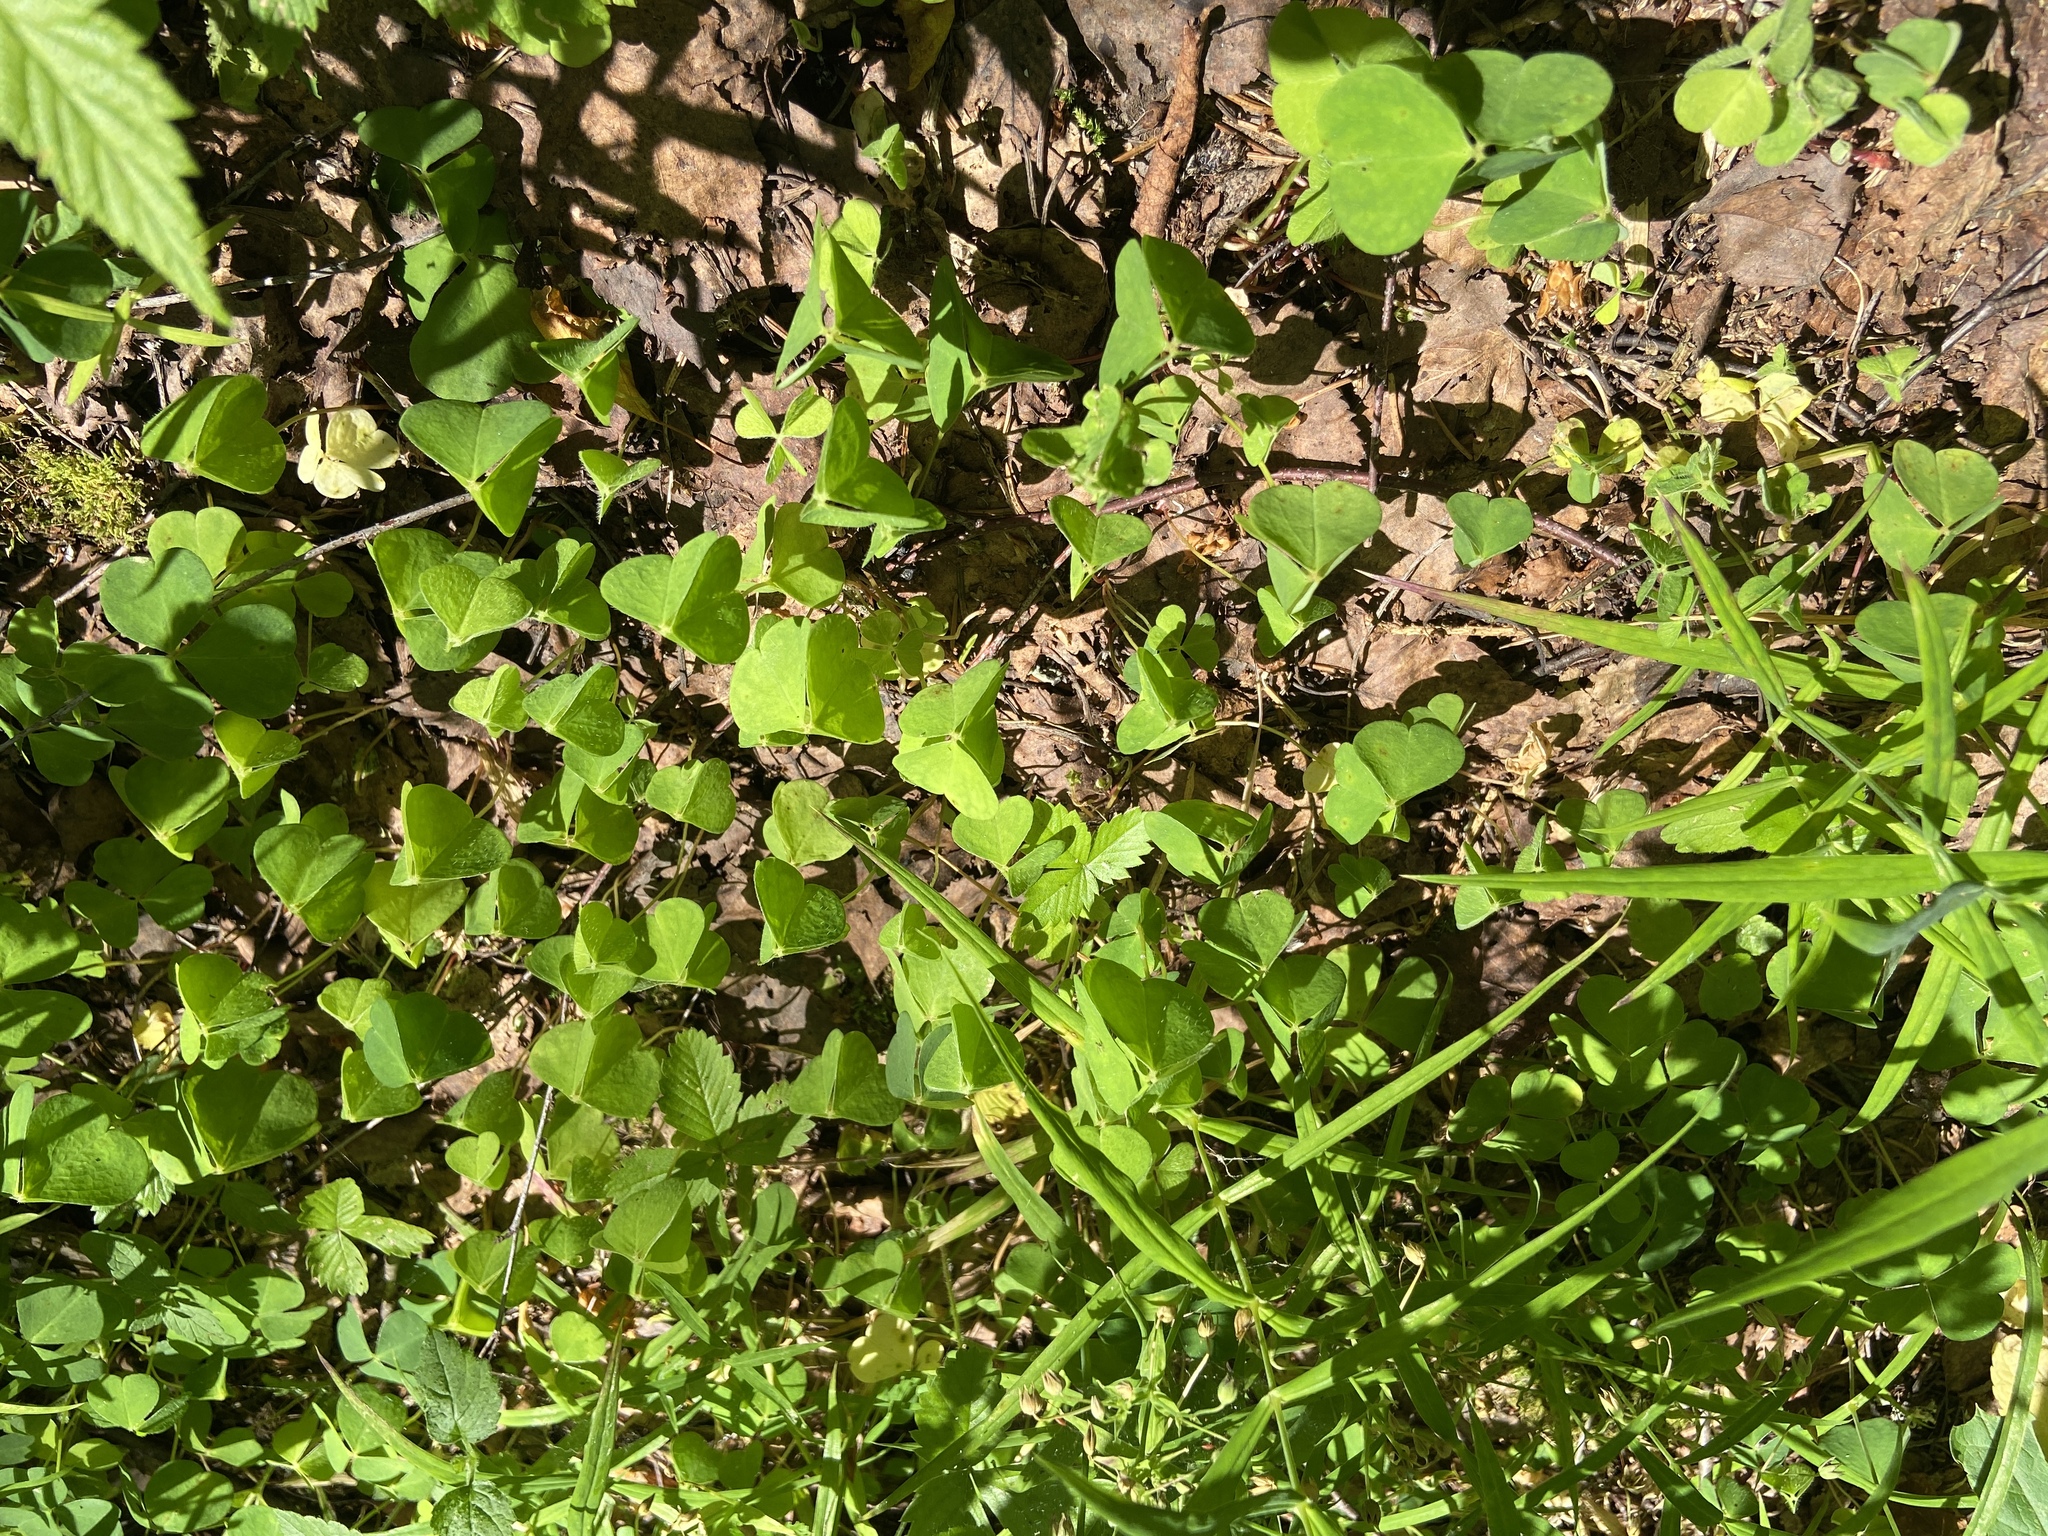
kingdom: Plantae
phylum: Tracheophyta
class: Magnoliopsida
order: Oxalidales
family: Oxalidaceae
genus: Oxalis
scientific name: Oxalis acetosella
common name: Wood-sorrel
